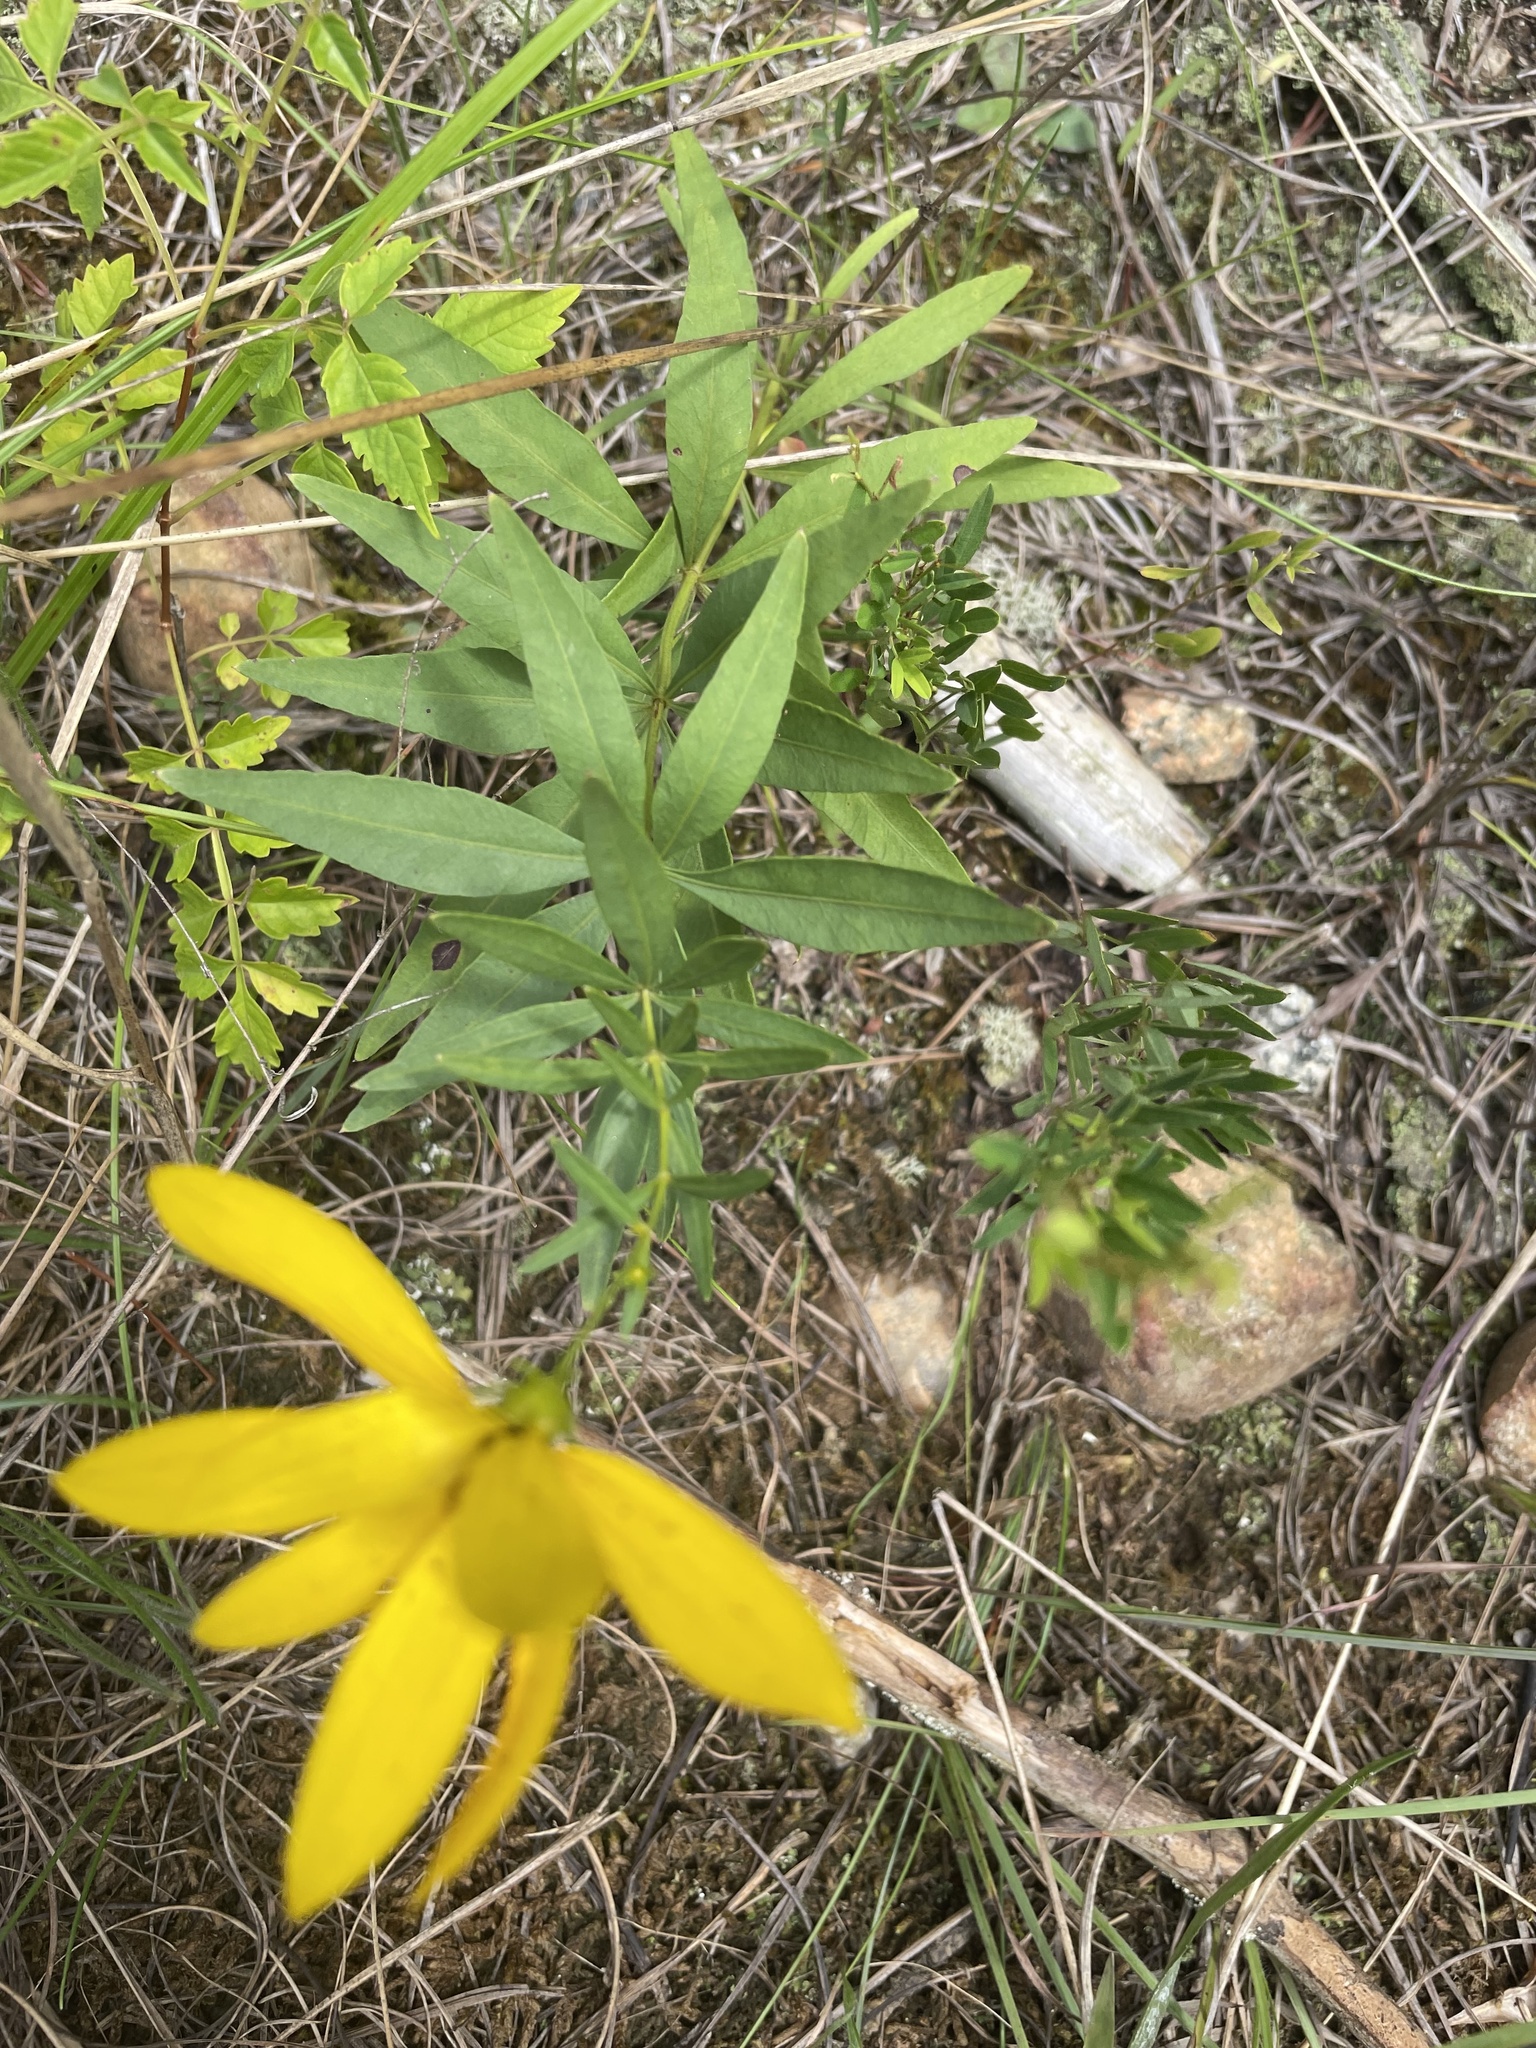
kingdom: Plantae
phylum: Tracheophyta
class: Magnoliopsida
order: Asterales
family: Asteraceae
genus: Coreopsis
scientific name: Coreopsis major
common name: Forest tickseed
